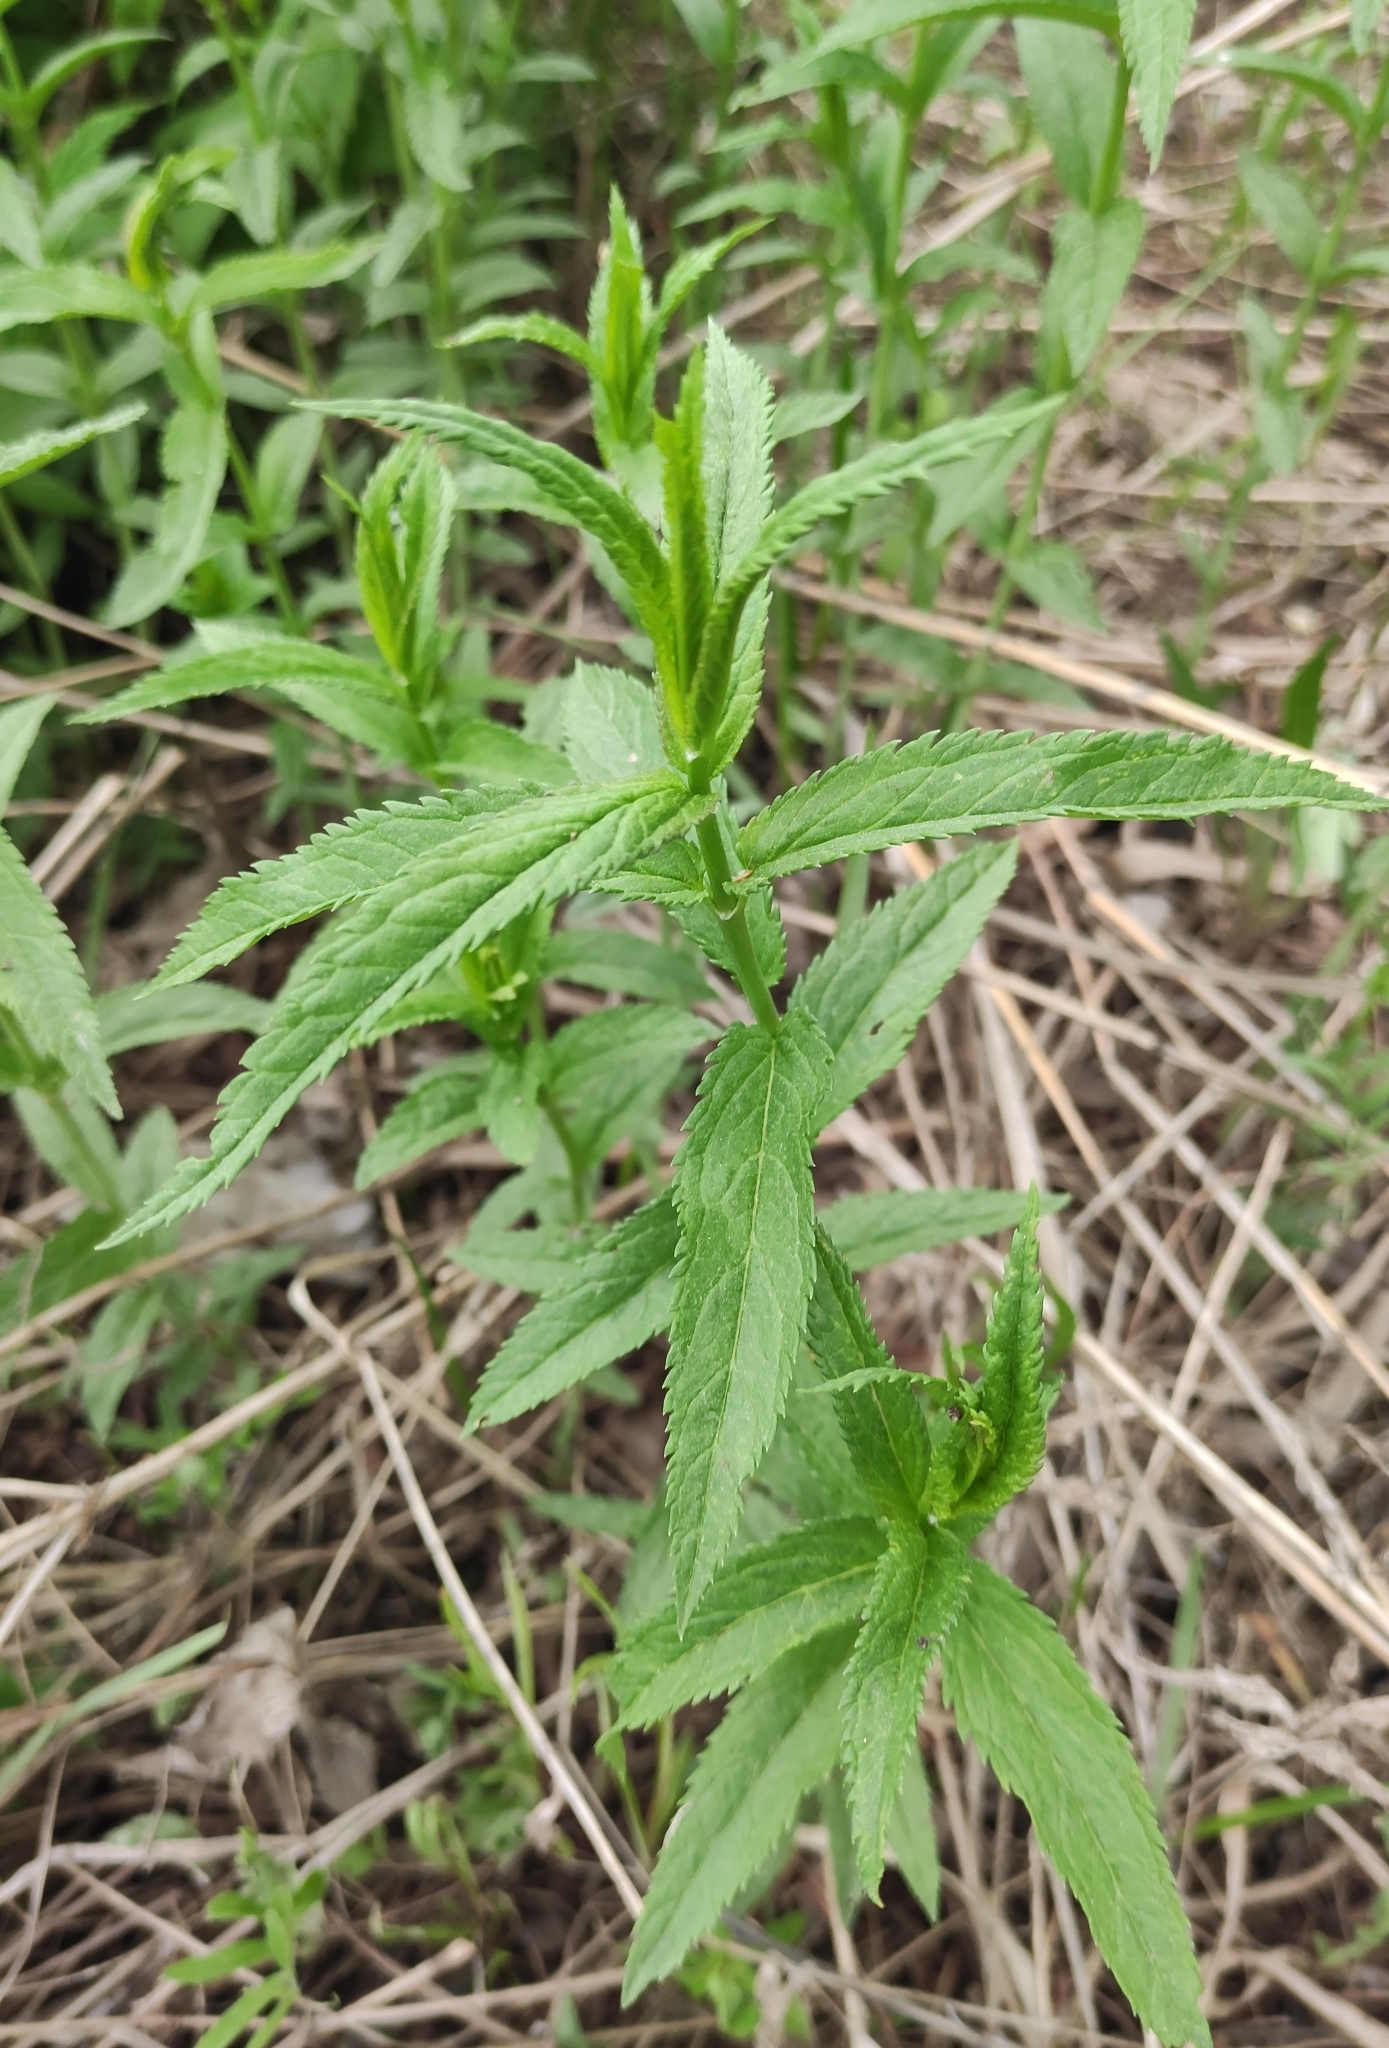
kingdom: Plantae
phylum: Tracheophyta
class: Magnoliopsida
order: Lamiales
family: Plantaginaceae
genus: Veronica
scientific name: Veronica longifolia
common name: Garden speedwell
